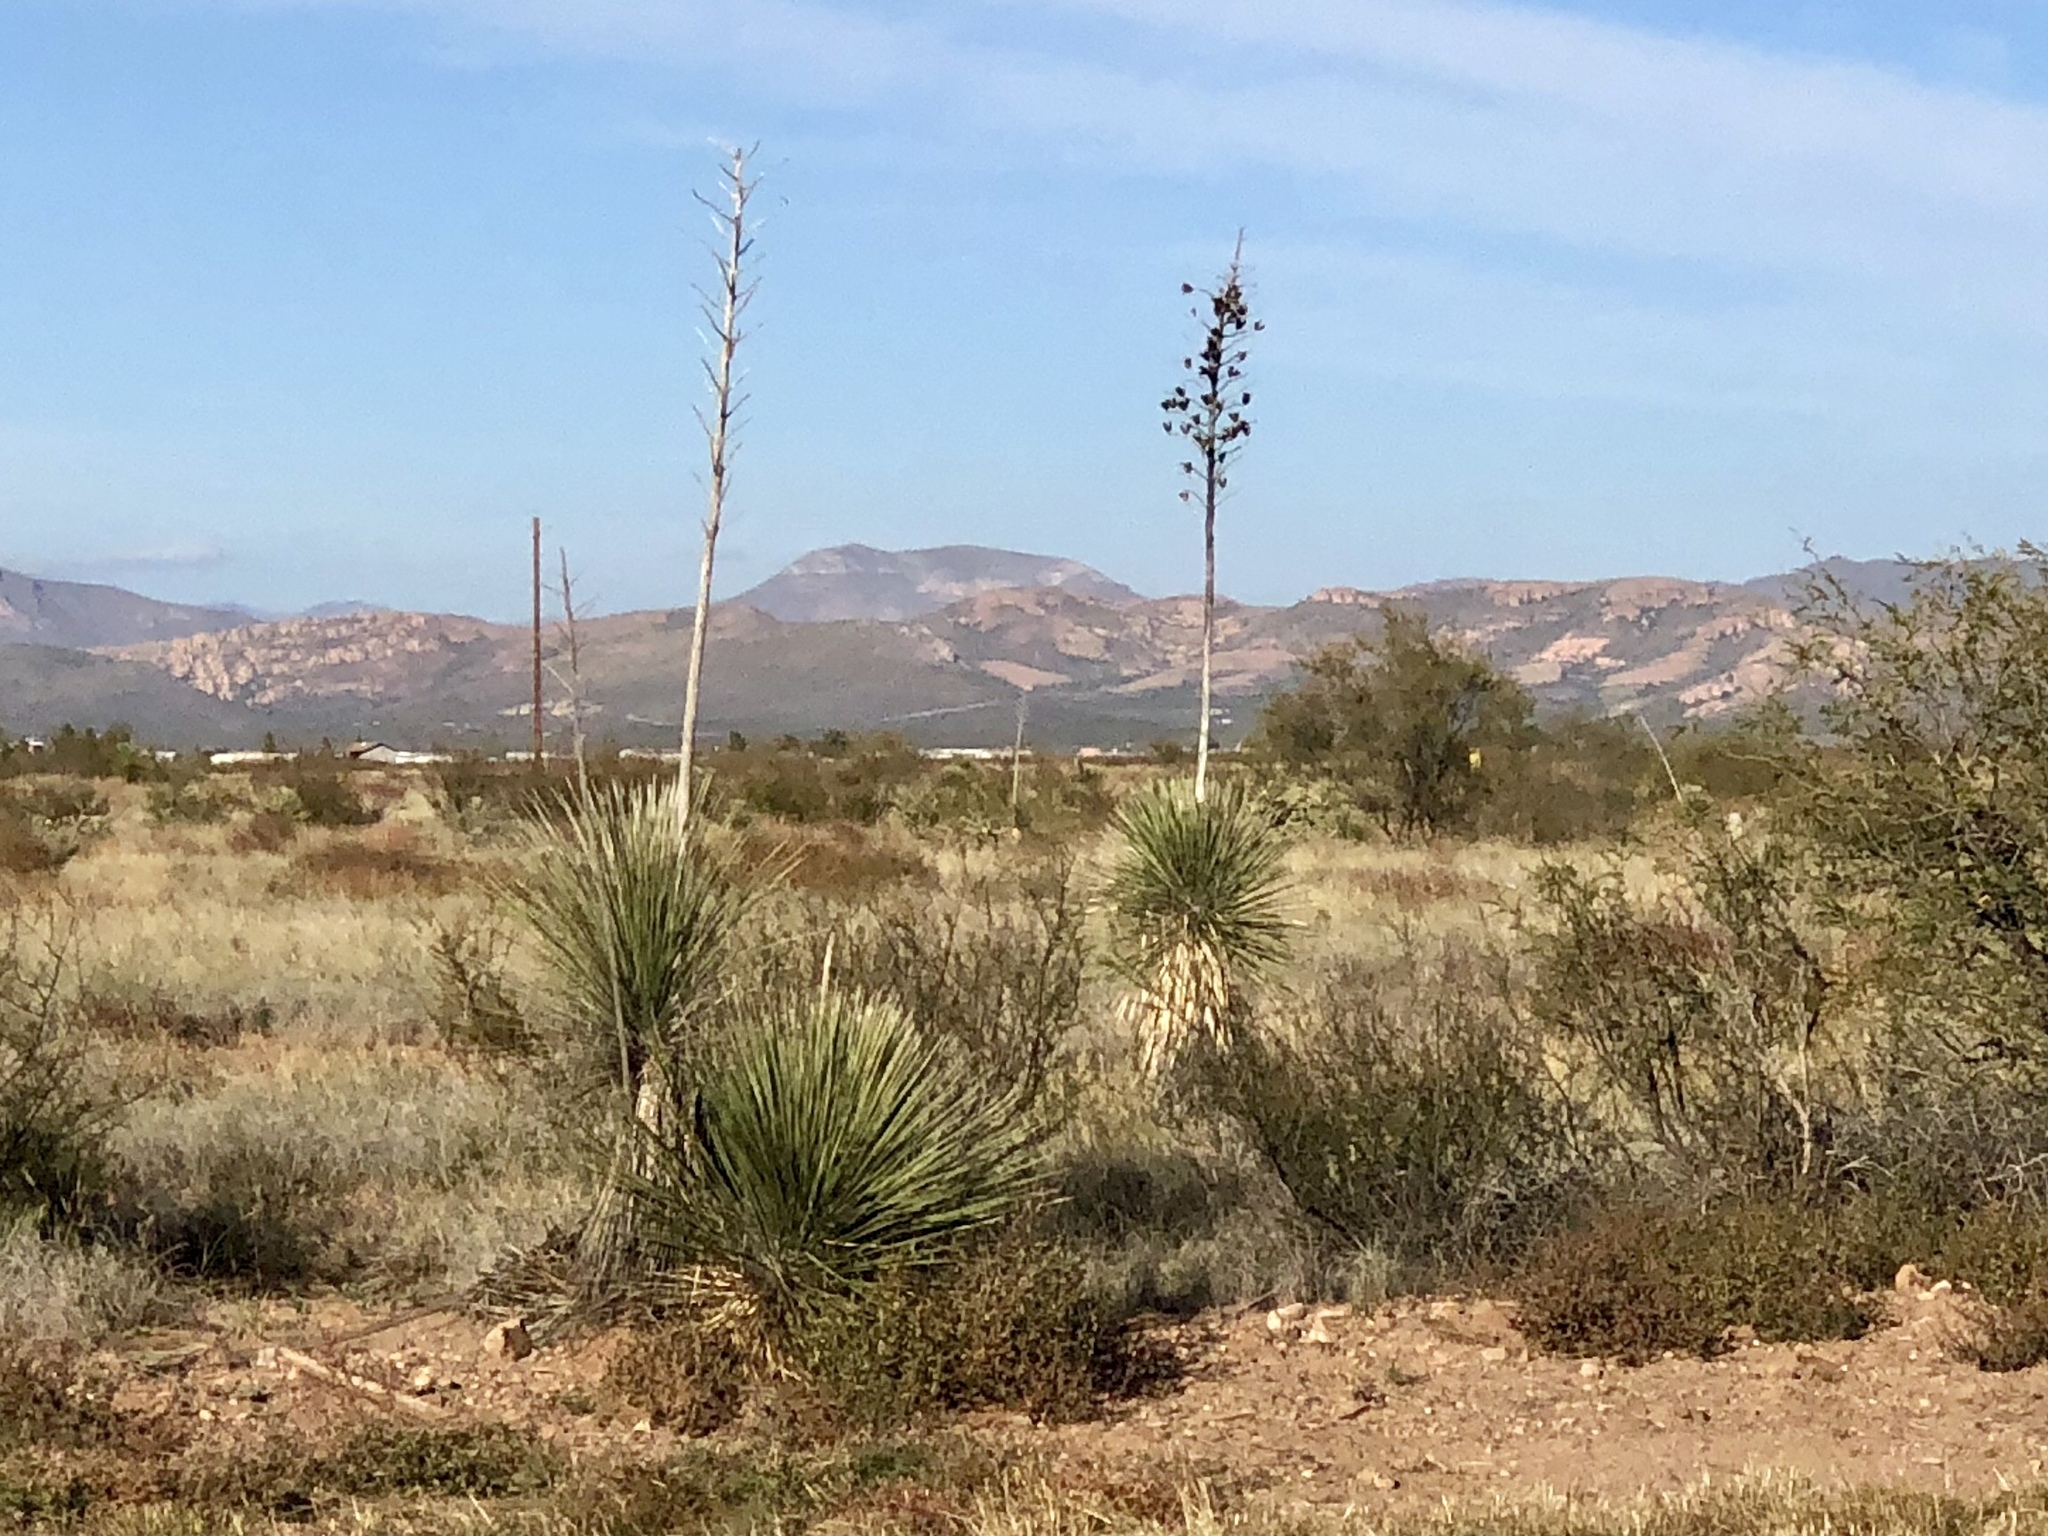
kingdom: Plantae
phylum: Tracheophyta
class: Liliopsida
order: Asparagales
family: Asparagaceae
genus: Yucca
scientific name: Yucca elata
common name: Palmella
